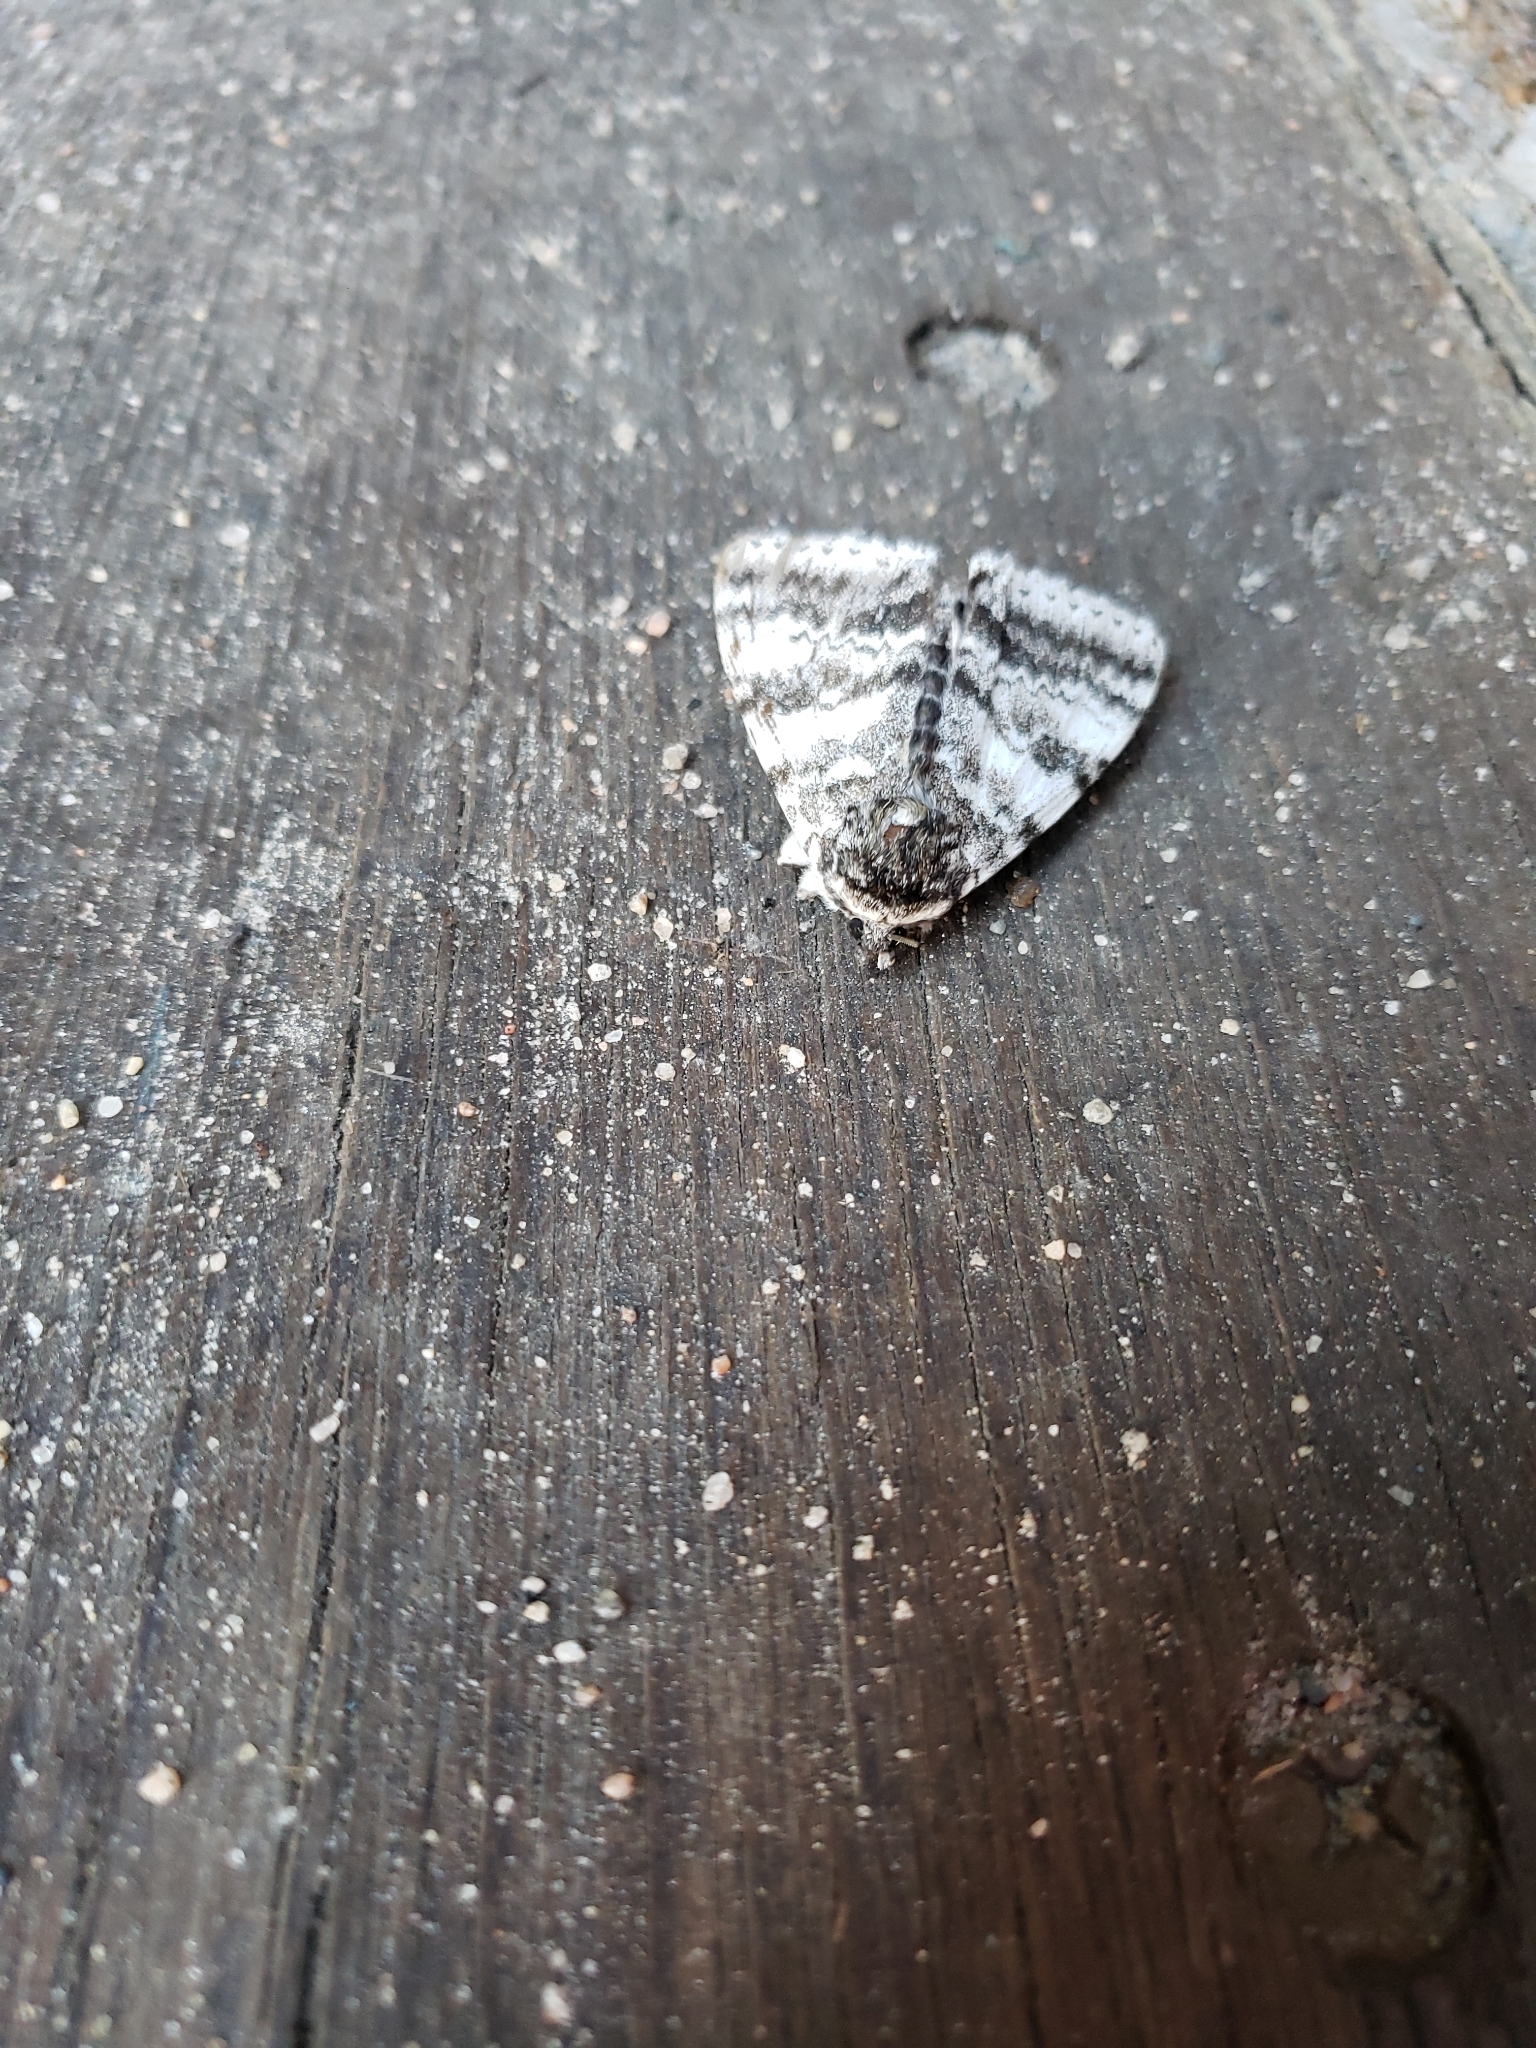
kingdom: Animalia
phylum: Arthropoda
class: Insecta
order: Lepidoptera
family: Erebidae
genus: Catocala
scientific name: Catocala relicta
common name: White underwing
